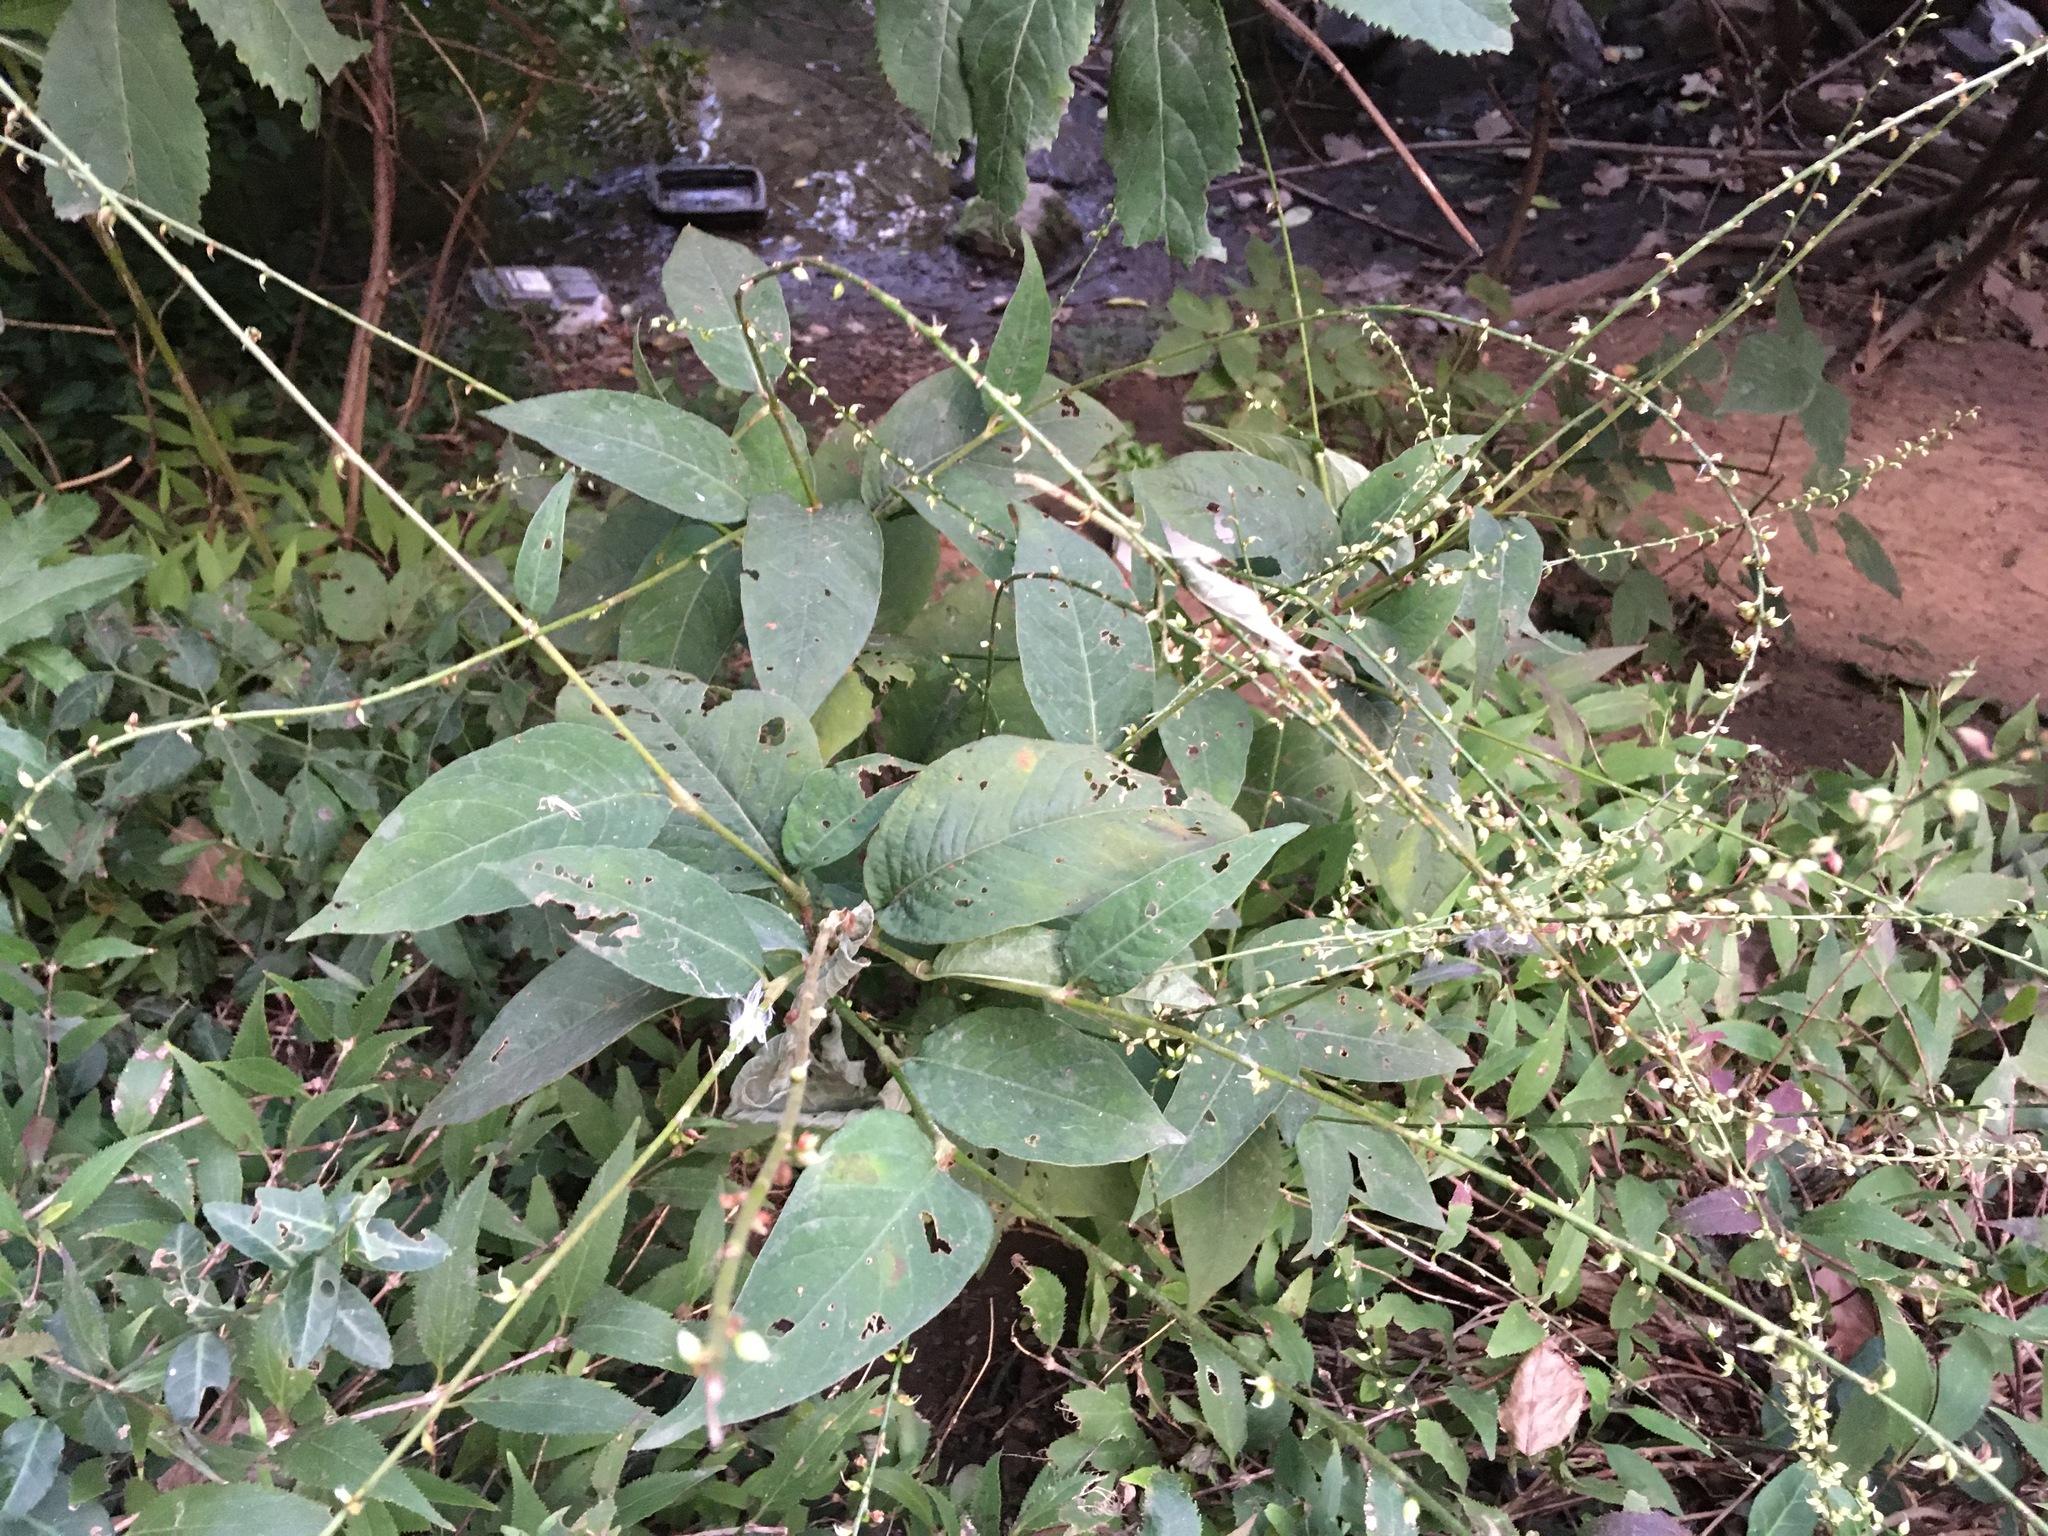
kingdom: Plantae
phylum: Tracheophyta
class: Magnoliopsida
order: Caryophyllales
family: Polygonaceae
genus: Persicaria
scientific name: Persicaria virginiana
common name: Jumpseed
